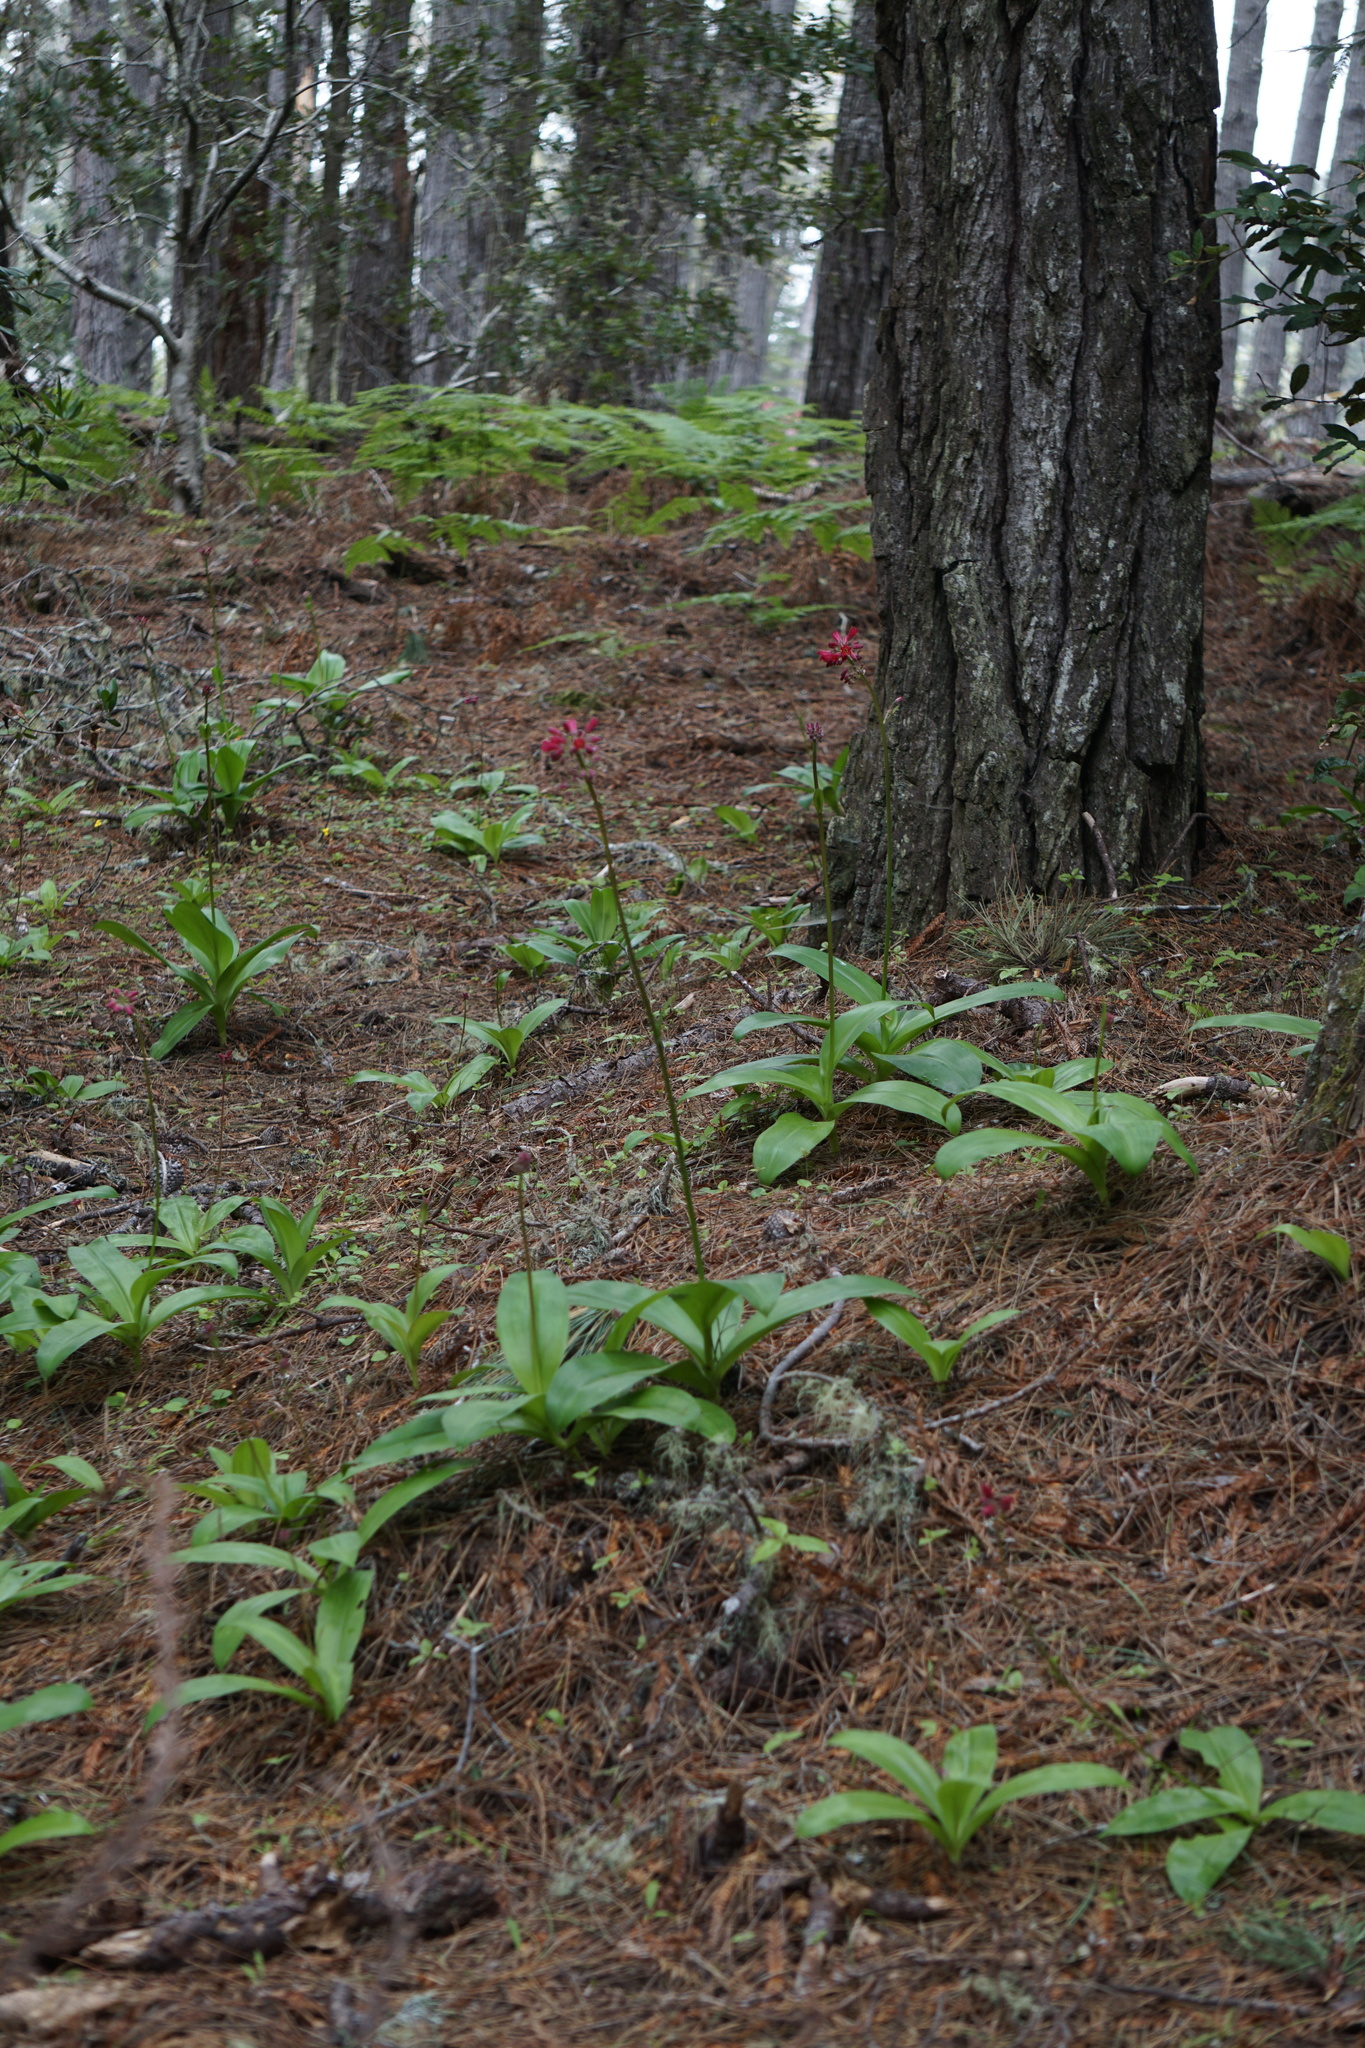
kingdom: Plantae
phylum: Tracheophyta
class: Liliopsida
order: Liliales
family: Liliaceae
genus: Clintonia
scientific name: Clintonia andrewsiana
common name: Red clintonia
